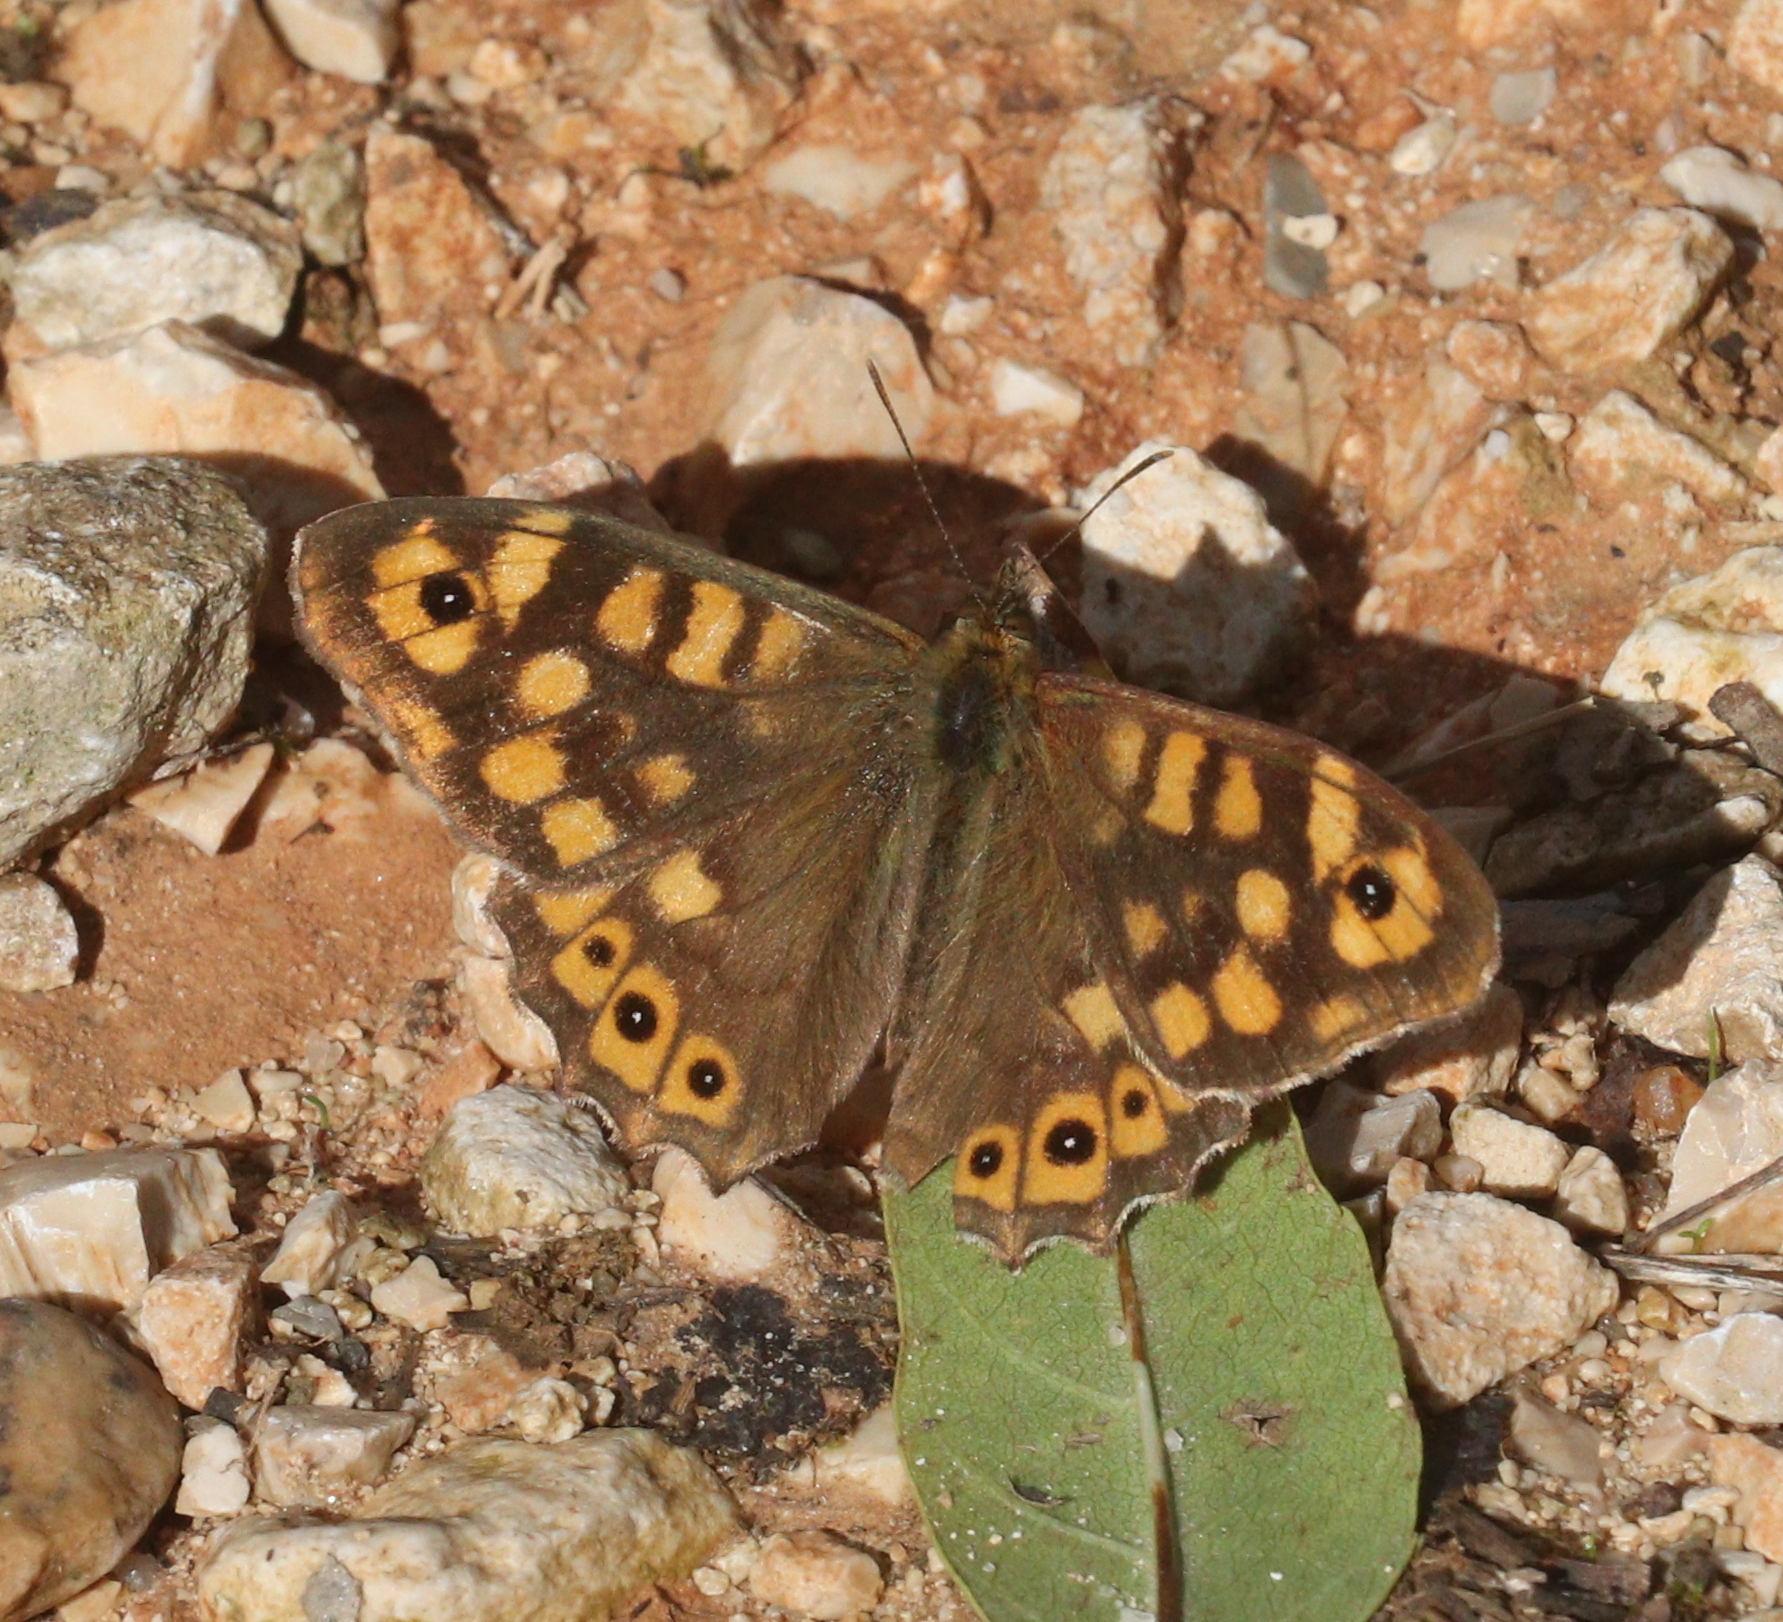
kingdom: Animalia
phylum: Arthropoda
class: Insecta
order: Lepidoptera
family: Nymphalidae
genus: Pararge
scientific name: Pararge aegeria
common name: Speckled wood
